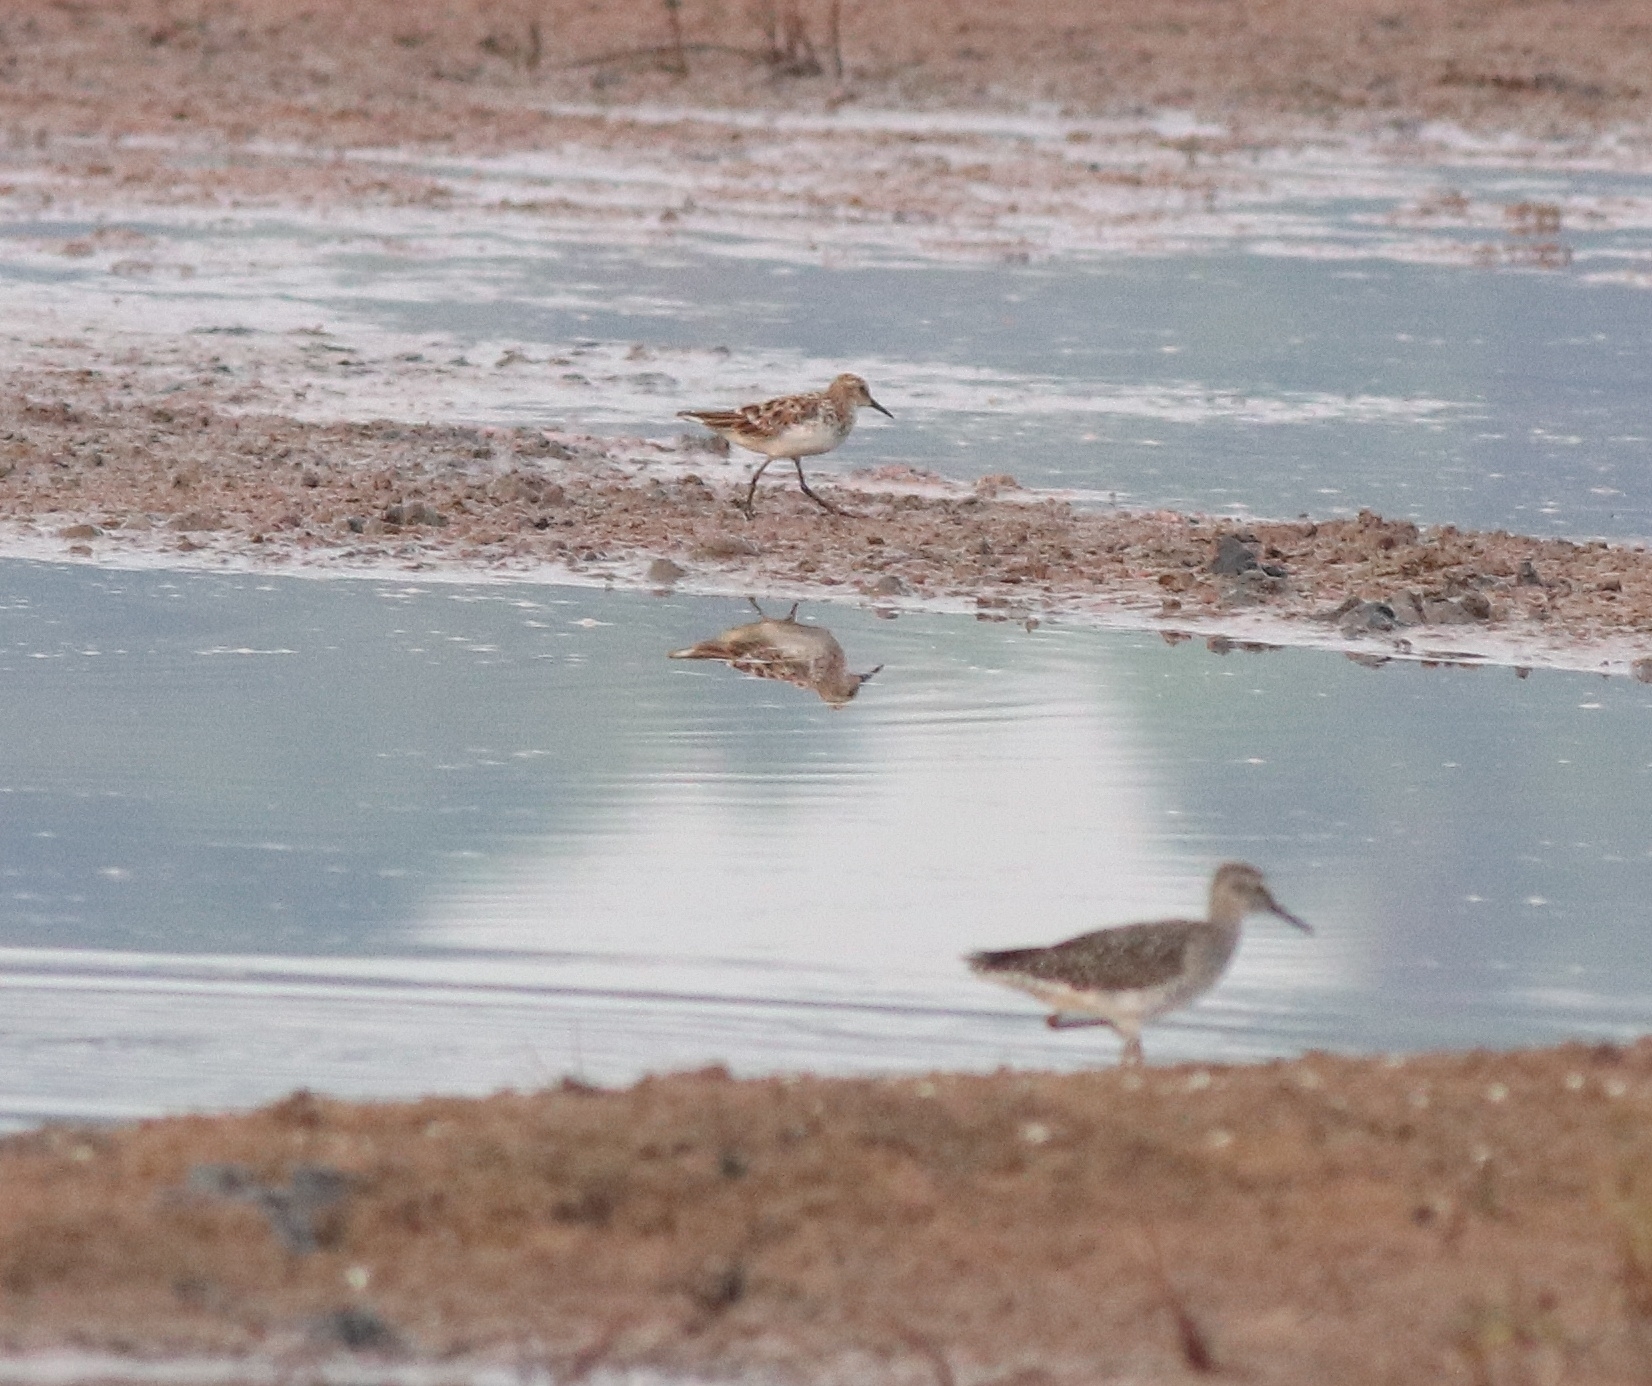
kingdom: Animalia
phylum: Chordata
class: Aves
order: Charadriiformes
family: Scolopacidae
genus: Calidris
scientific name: Calidris minuta
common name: Little stint
